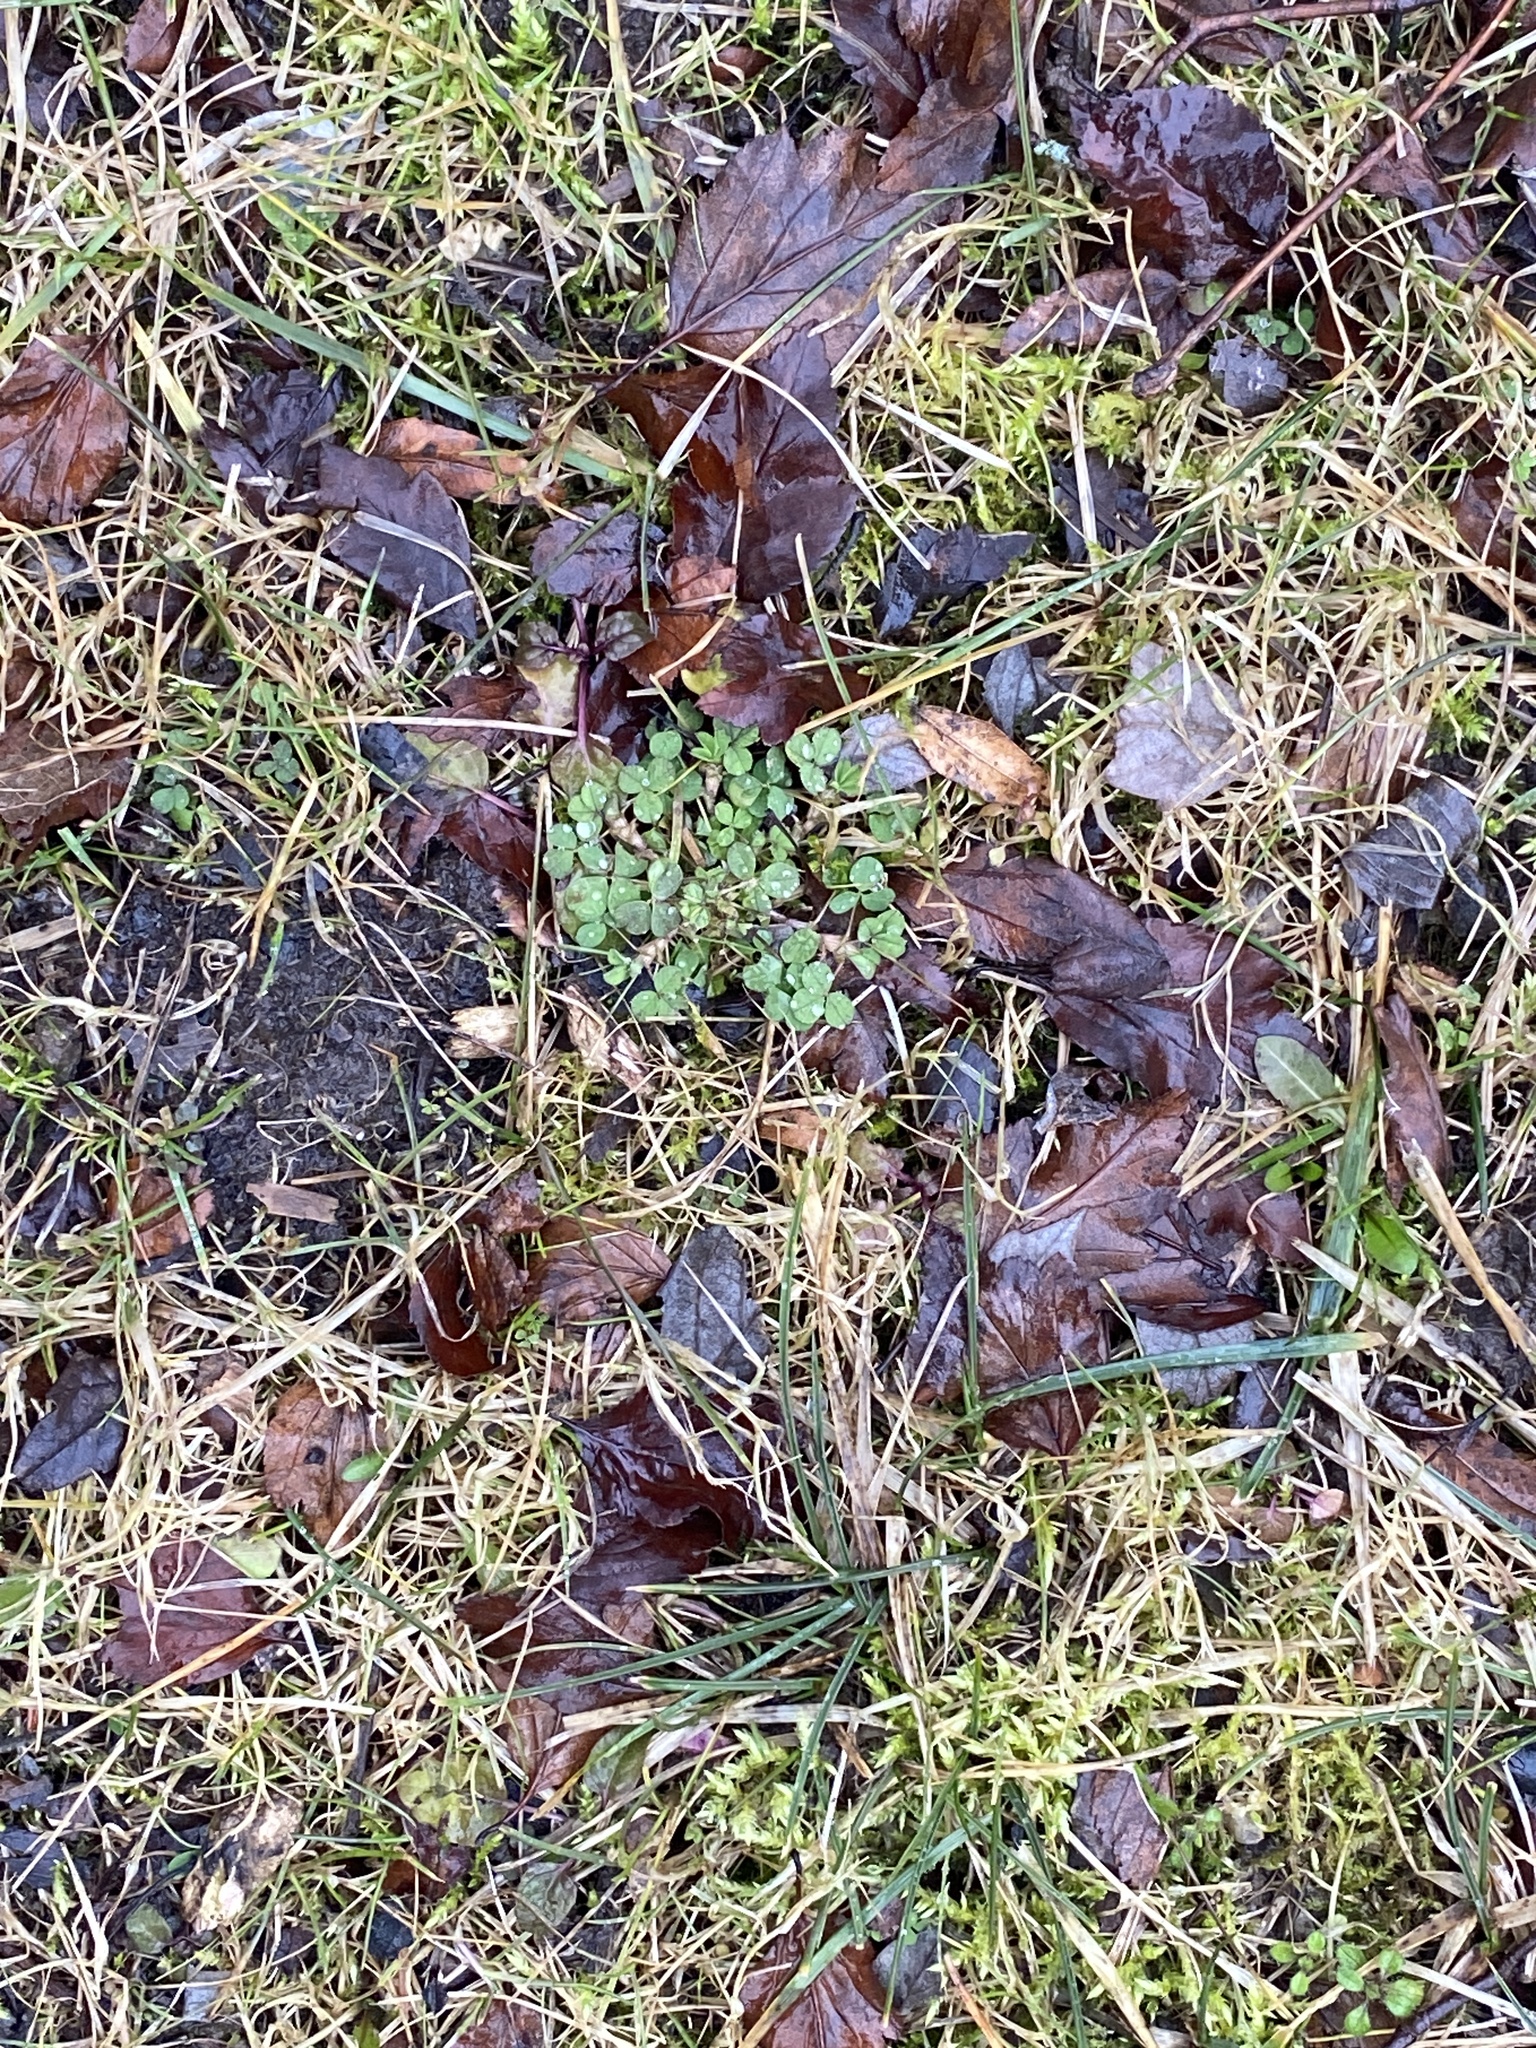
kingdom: Plantae
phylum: Tracheophyta
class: Magnoliopsida
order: Fabales
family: Fabaceae
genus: Trifolium
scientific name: Trifolium repens
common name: White clover
